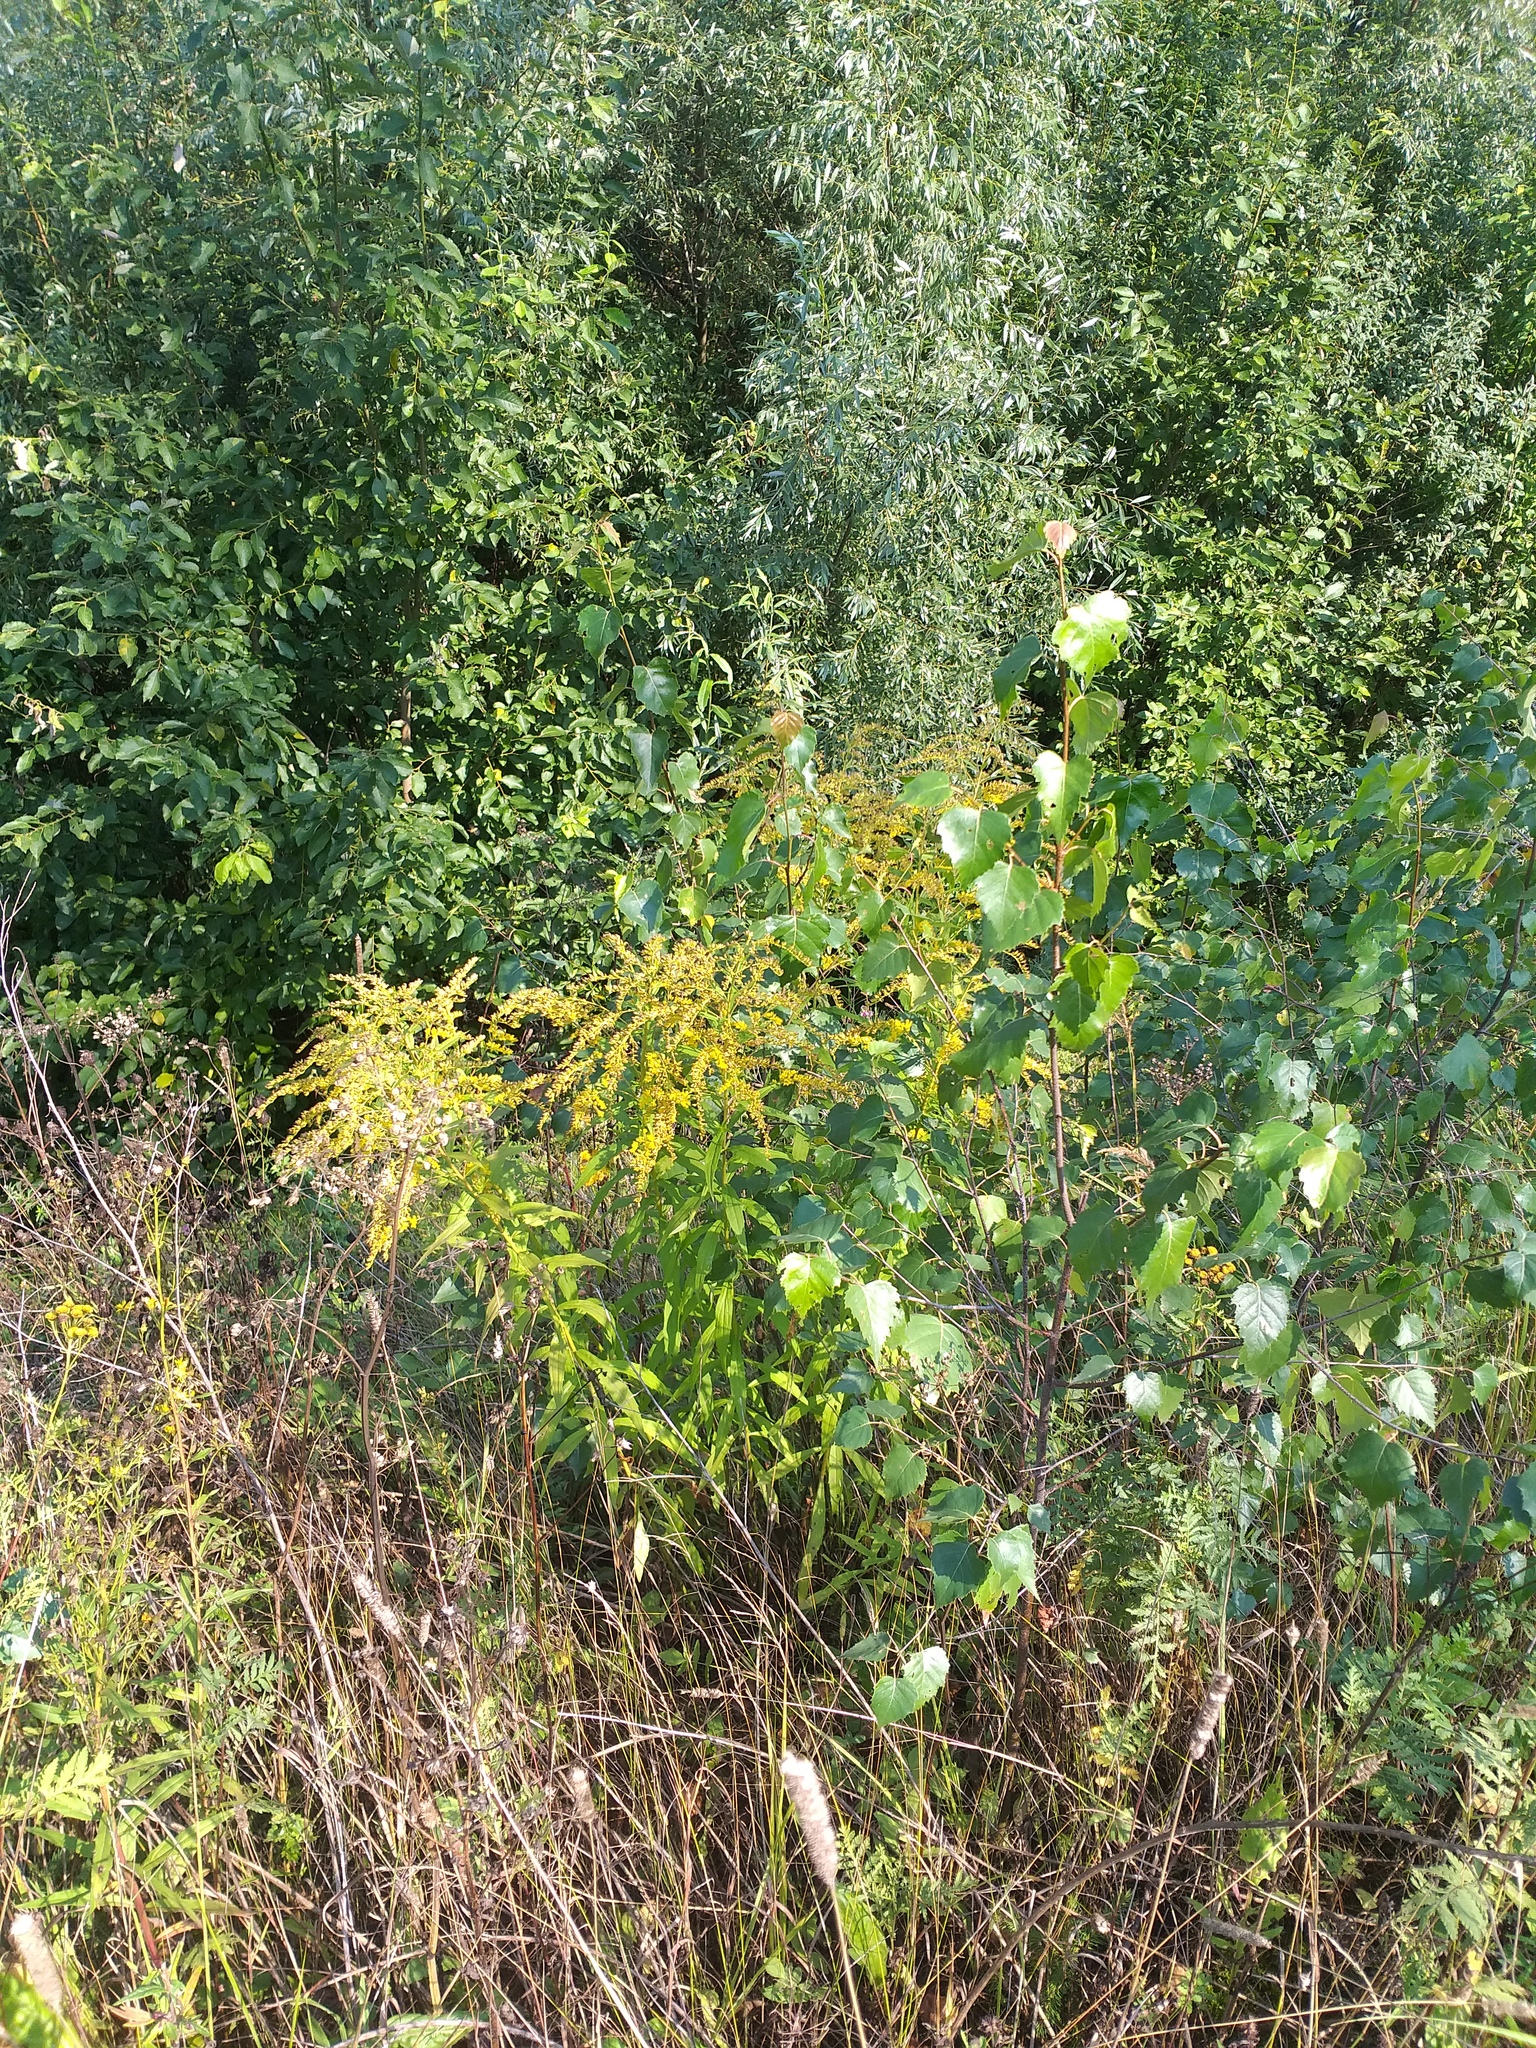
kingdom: Plantae
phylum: Tracheophyta
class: Magnoliopsida
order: Asterales
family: Asteraceae
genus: Solidago
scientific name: Solidago canadensis
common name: Canada goldenrod
